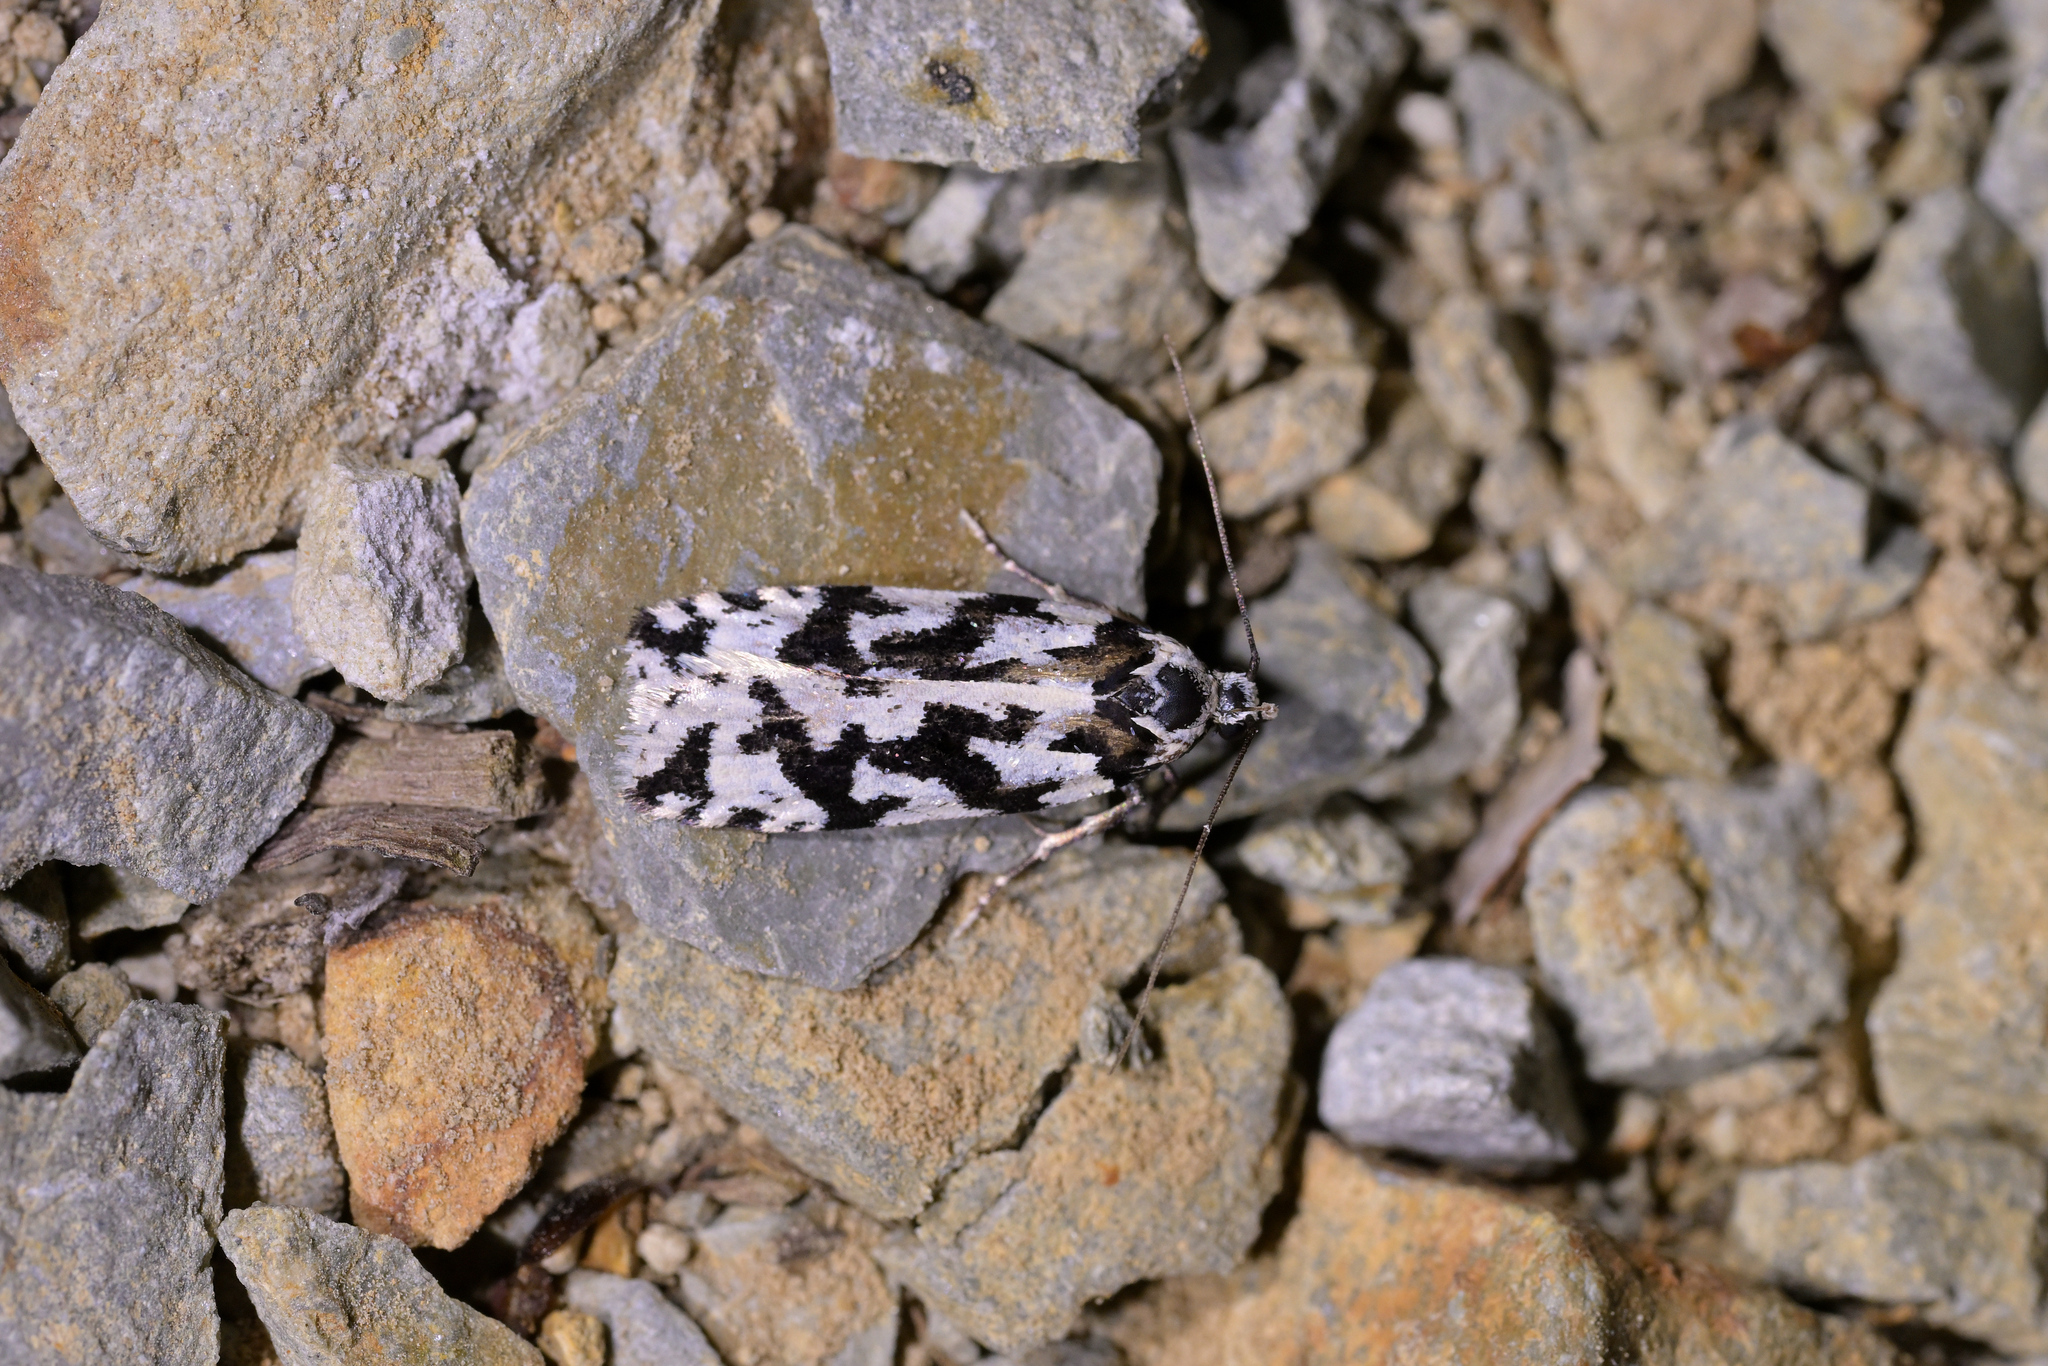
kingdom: Animalia
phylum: Arthropoda
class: Insecta
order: Lepidoptera
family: Oecophoridae
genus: Izatha
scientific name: Izatha acmonias
